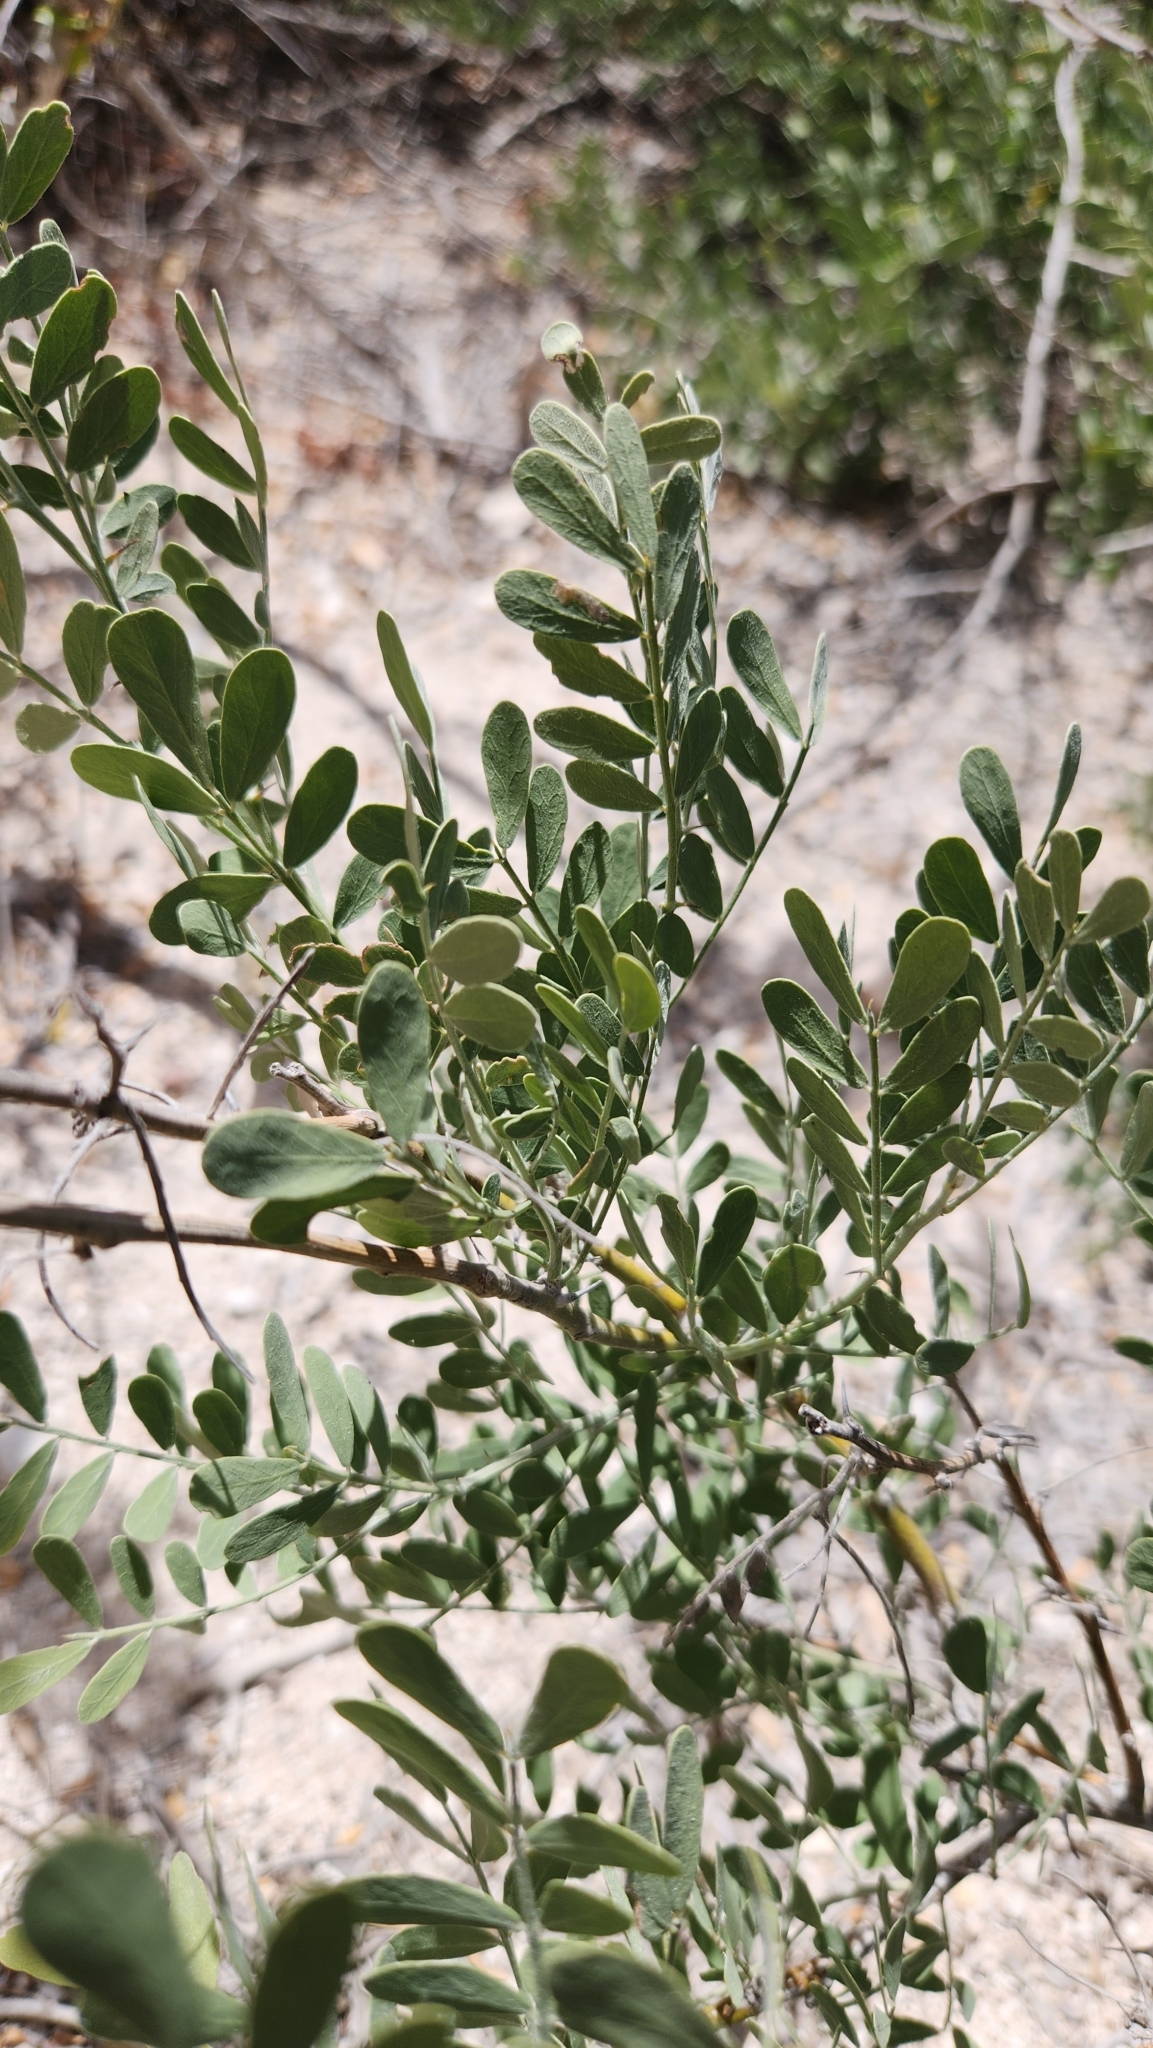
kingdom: Plantae
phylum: Tracheophyta
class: Magnoliopsida
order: Fabales
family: Fabaceae
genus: Olneya
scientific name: Olneya tesota
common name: Desert ironwood
